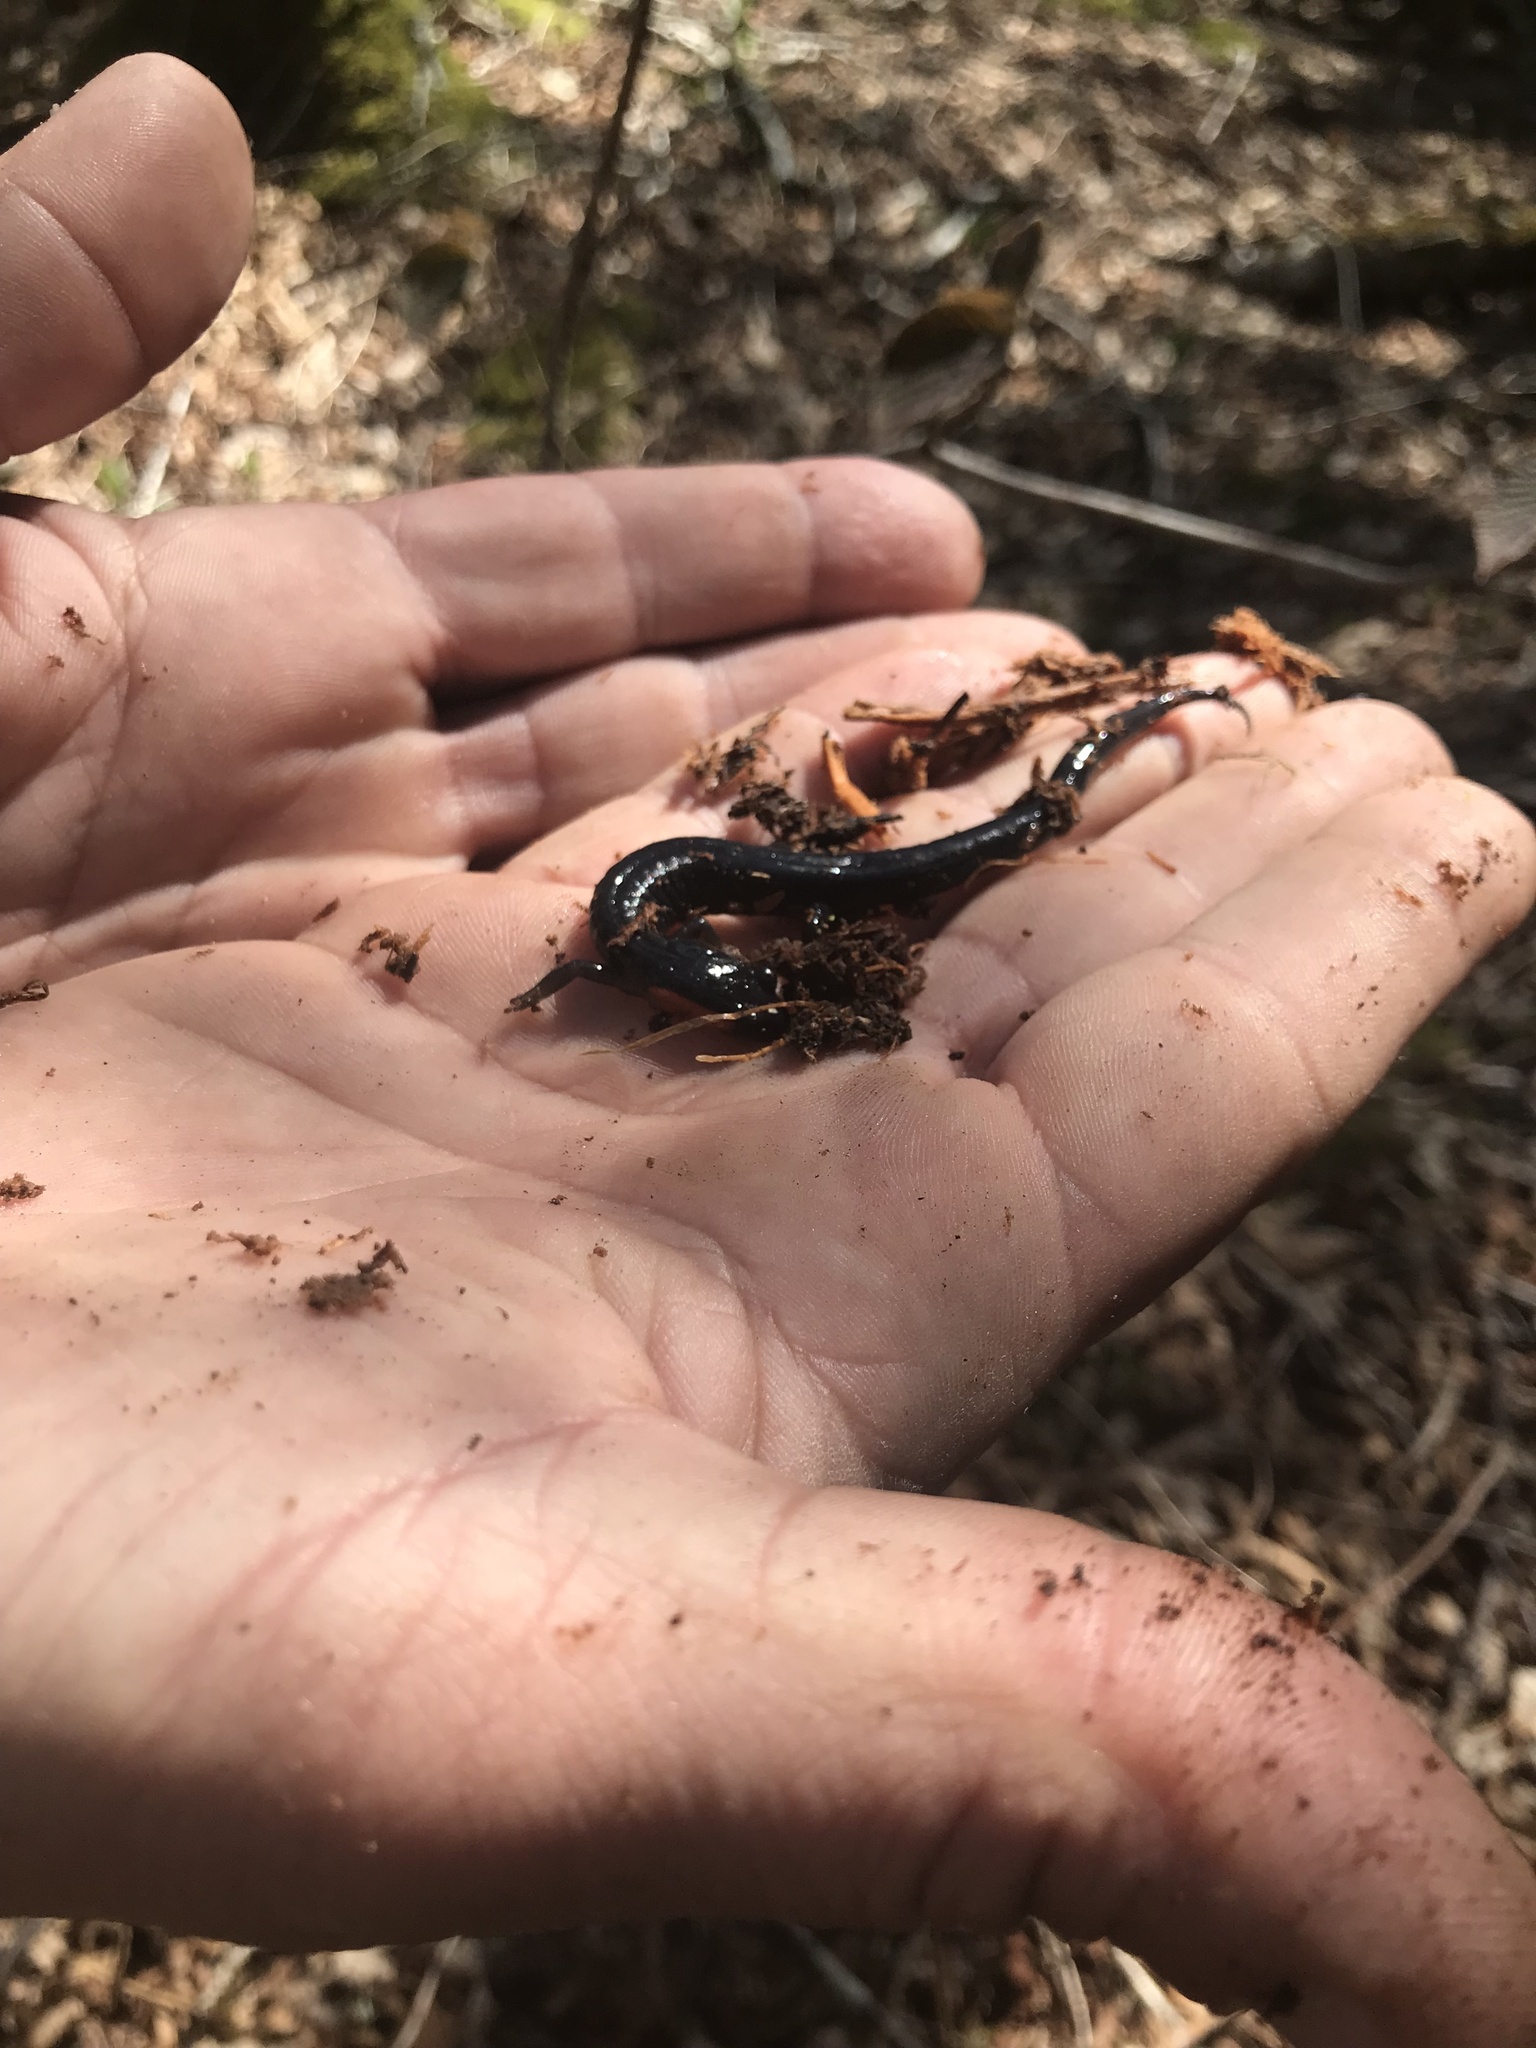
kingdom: Animalia
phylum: Chordata
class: Amphibia
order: Caudata
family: Plethodontidae
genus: Plethodon
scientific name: Plethodon jordani
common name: Red-cheeked salamander
